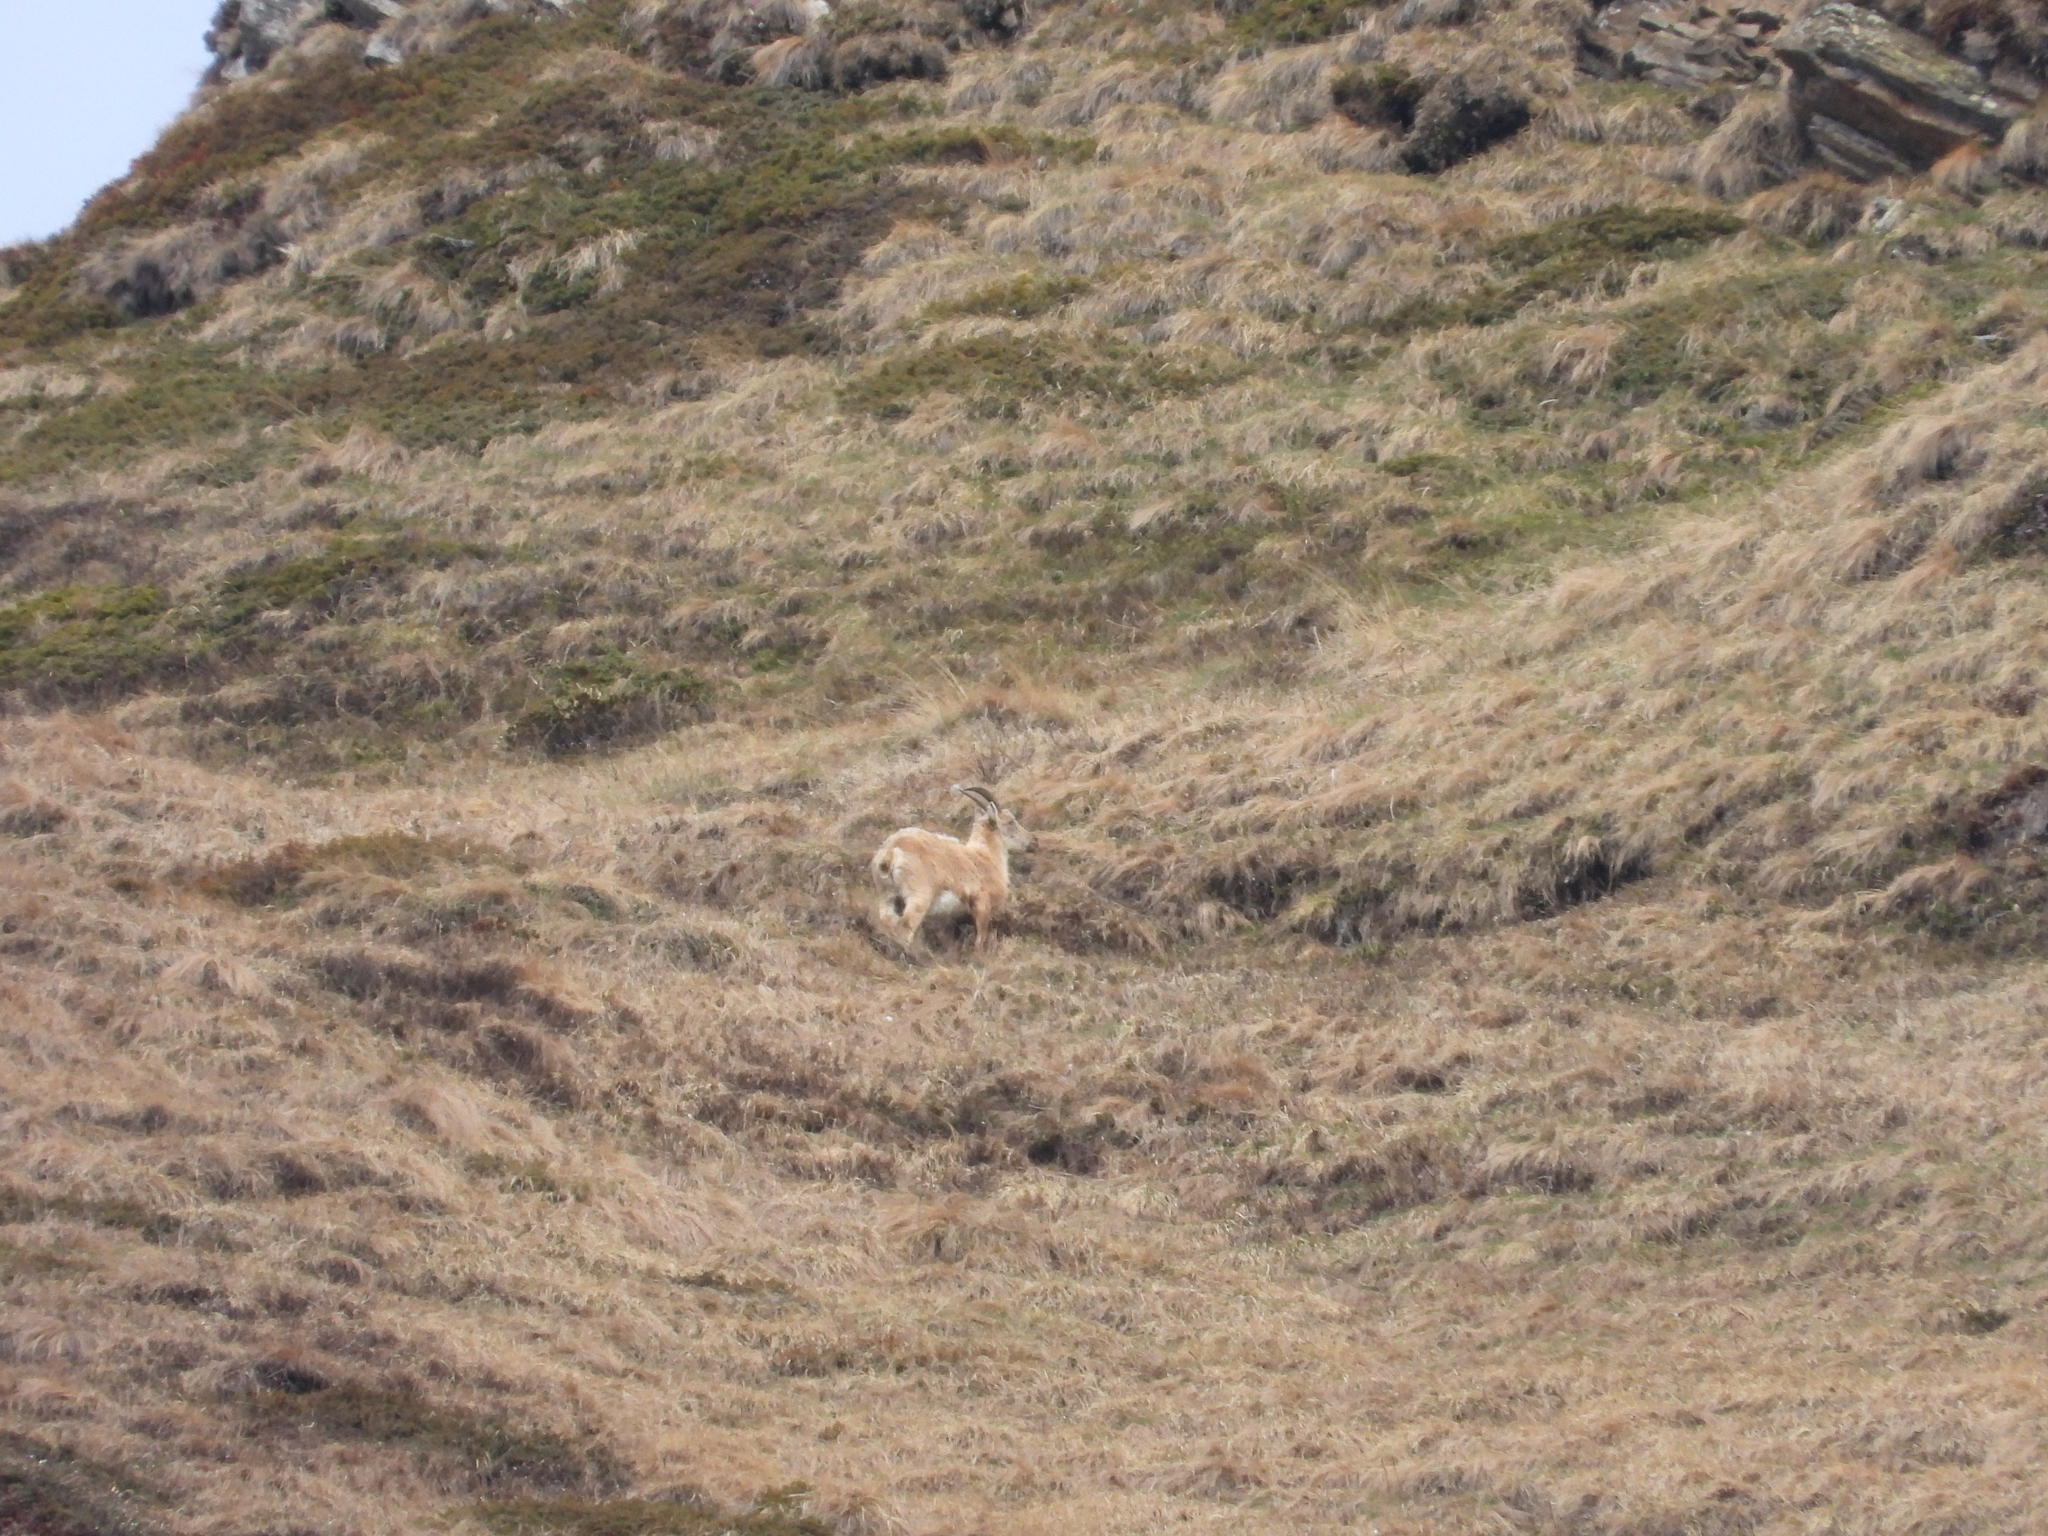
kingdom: Animalia
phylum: Chordata
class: Mammalia
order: Artiodactyla
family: Bovidae
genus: Capra
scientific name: Capra ibex
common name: Alpine ibex
